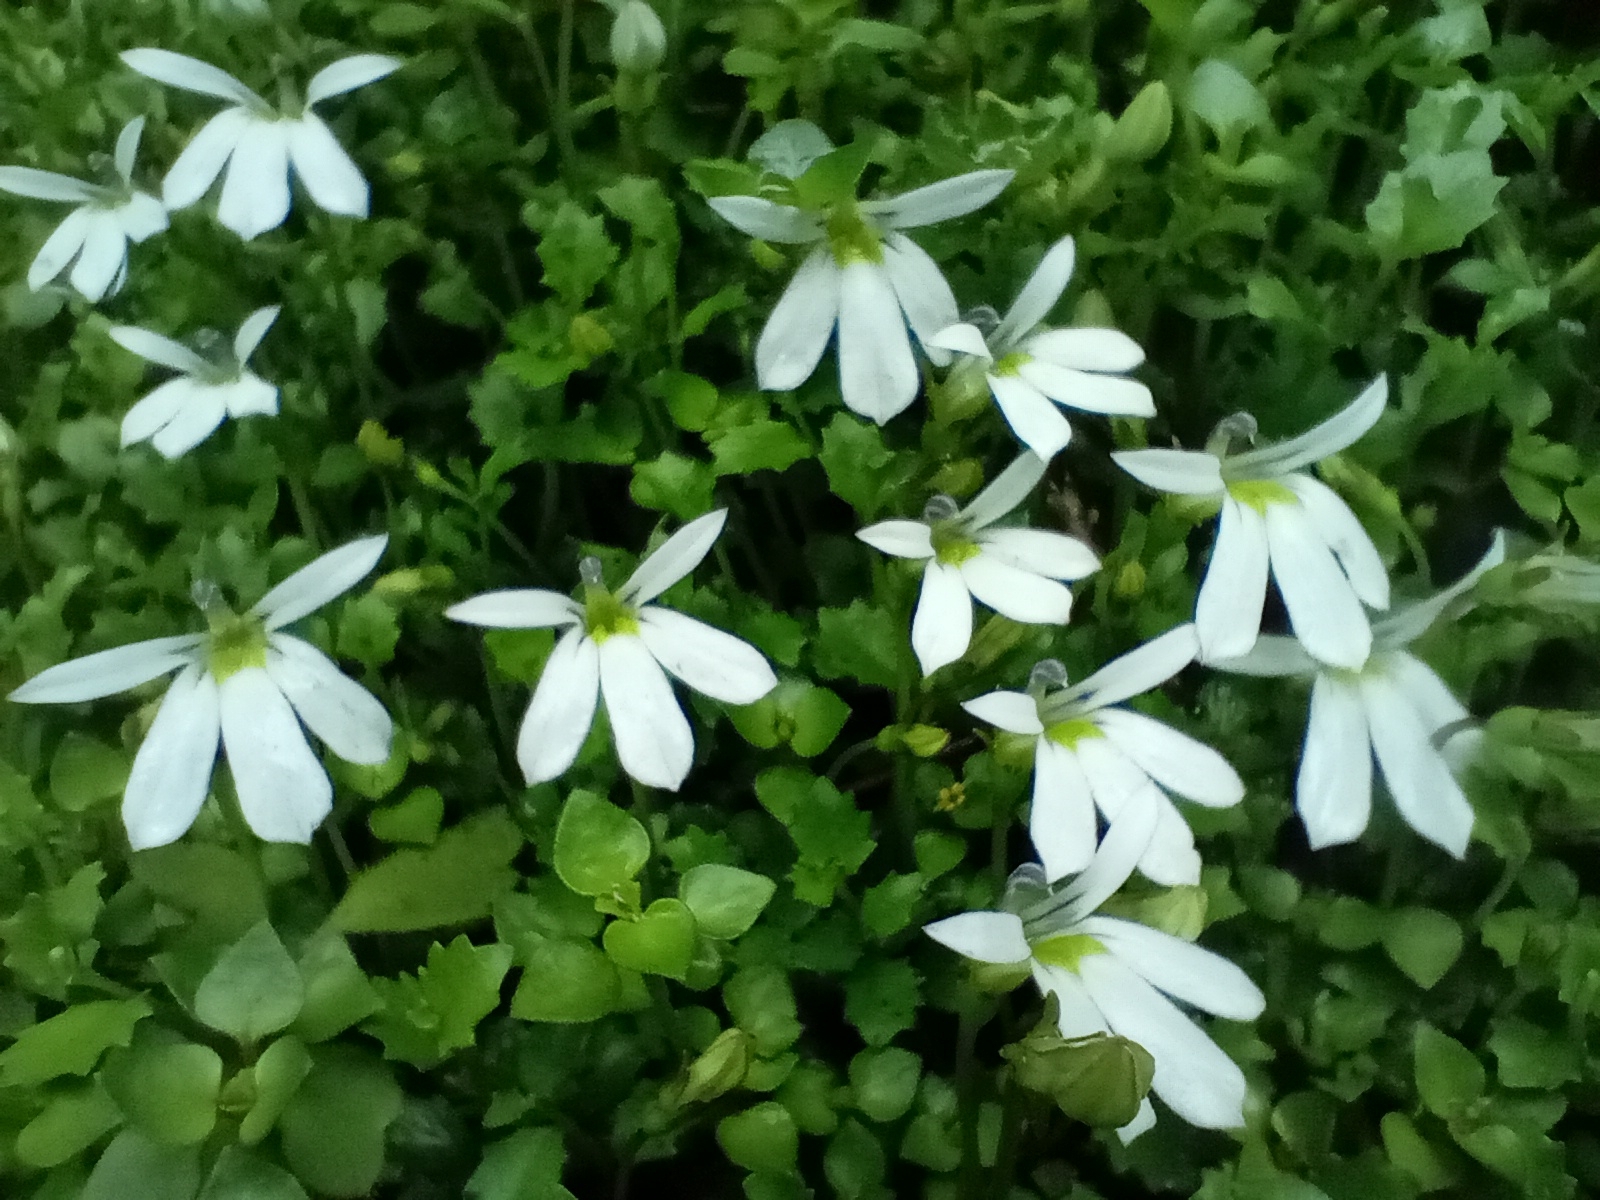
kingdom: Plantae
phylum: Tracheophyta
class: Magnoliopsida
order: Asterales
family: Campanulaceae
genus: Lobelia
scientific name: Lobelia angulata
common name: Lawn lobelia
